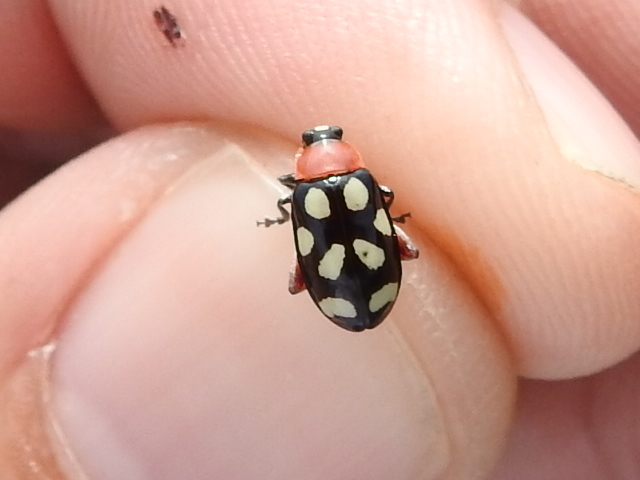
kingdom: Animalia
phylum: Arthropoda
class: Insecta
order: Coleoptera
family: Chrysomelidae
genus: Omophoita
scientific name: Omophoita cyanipennis
